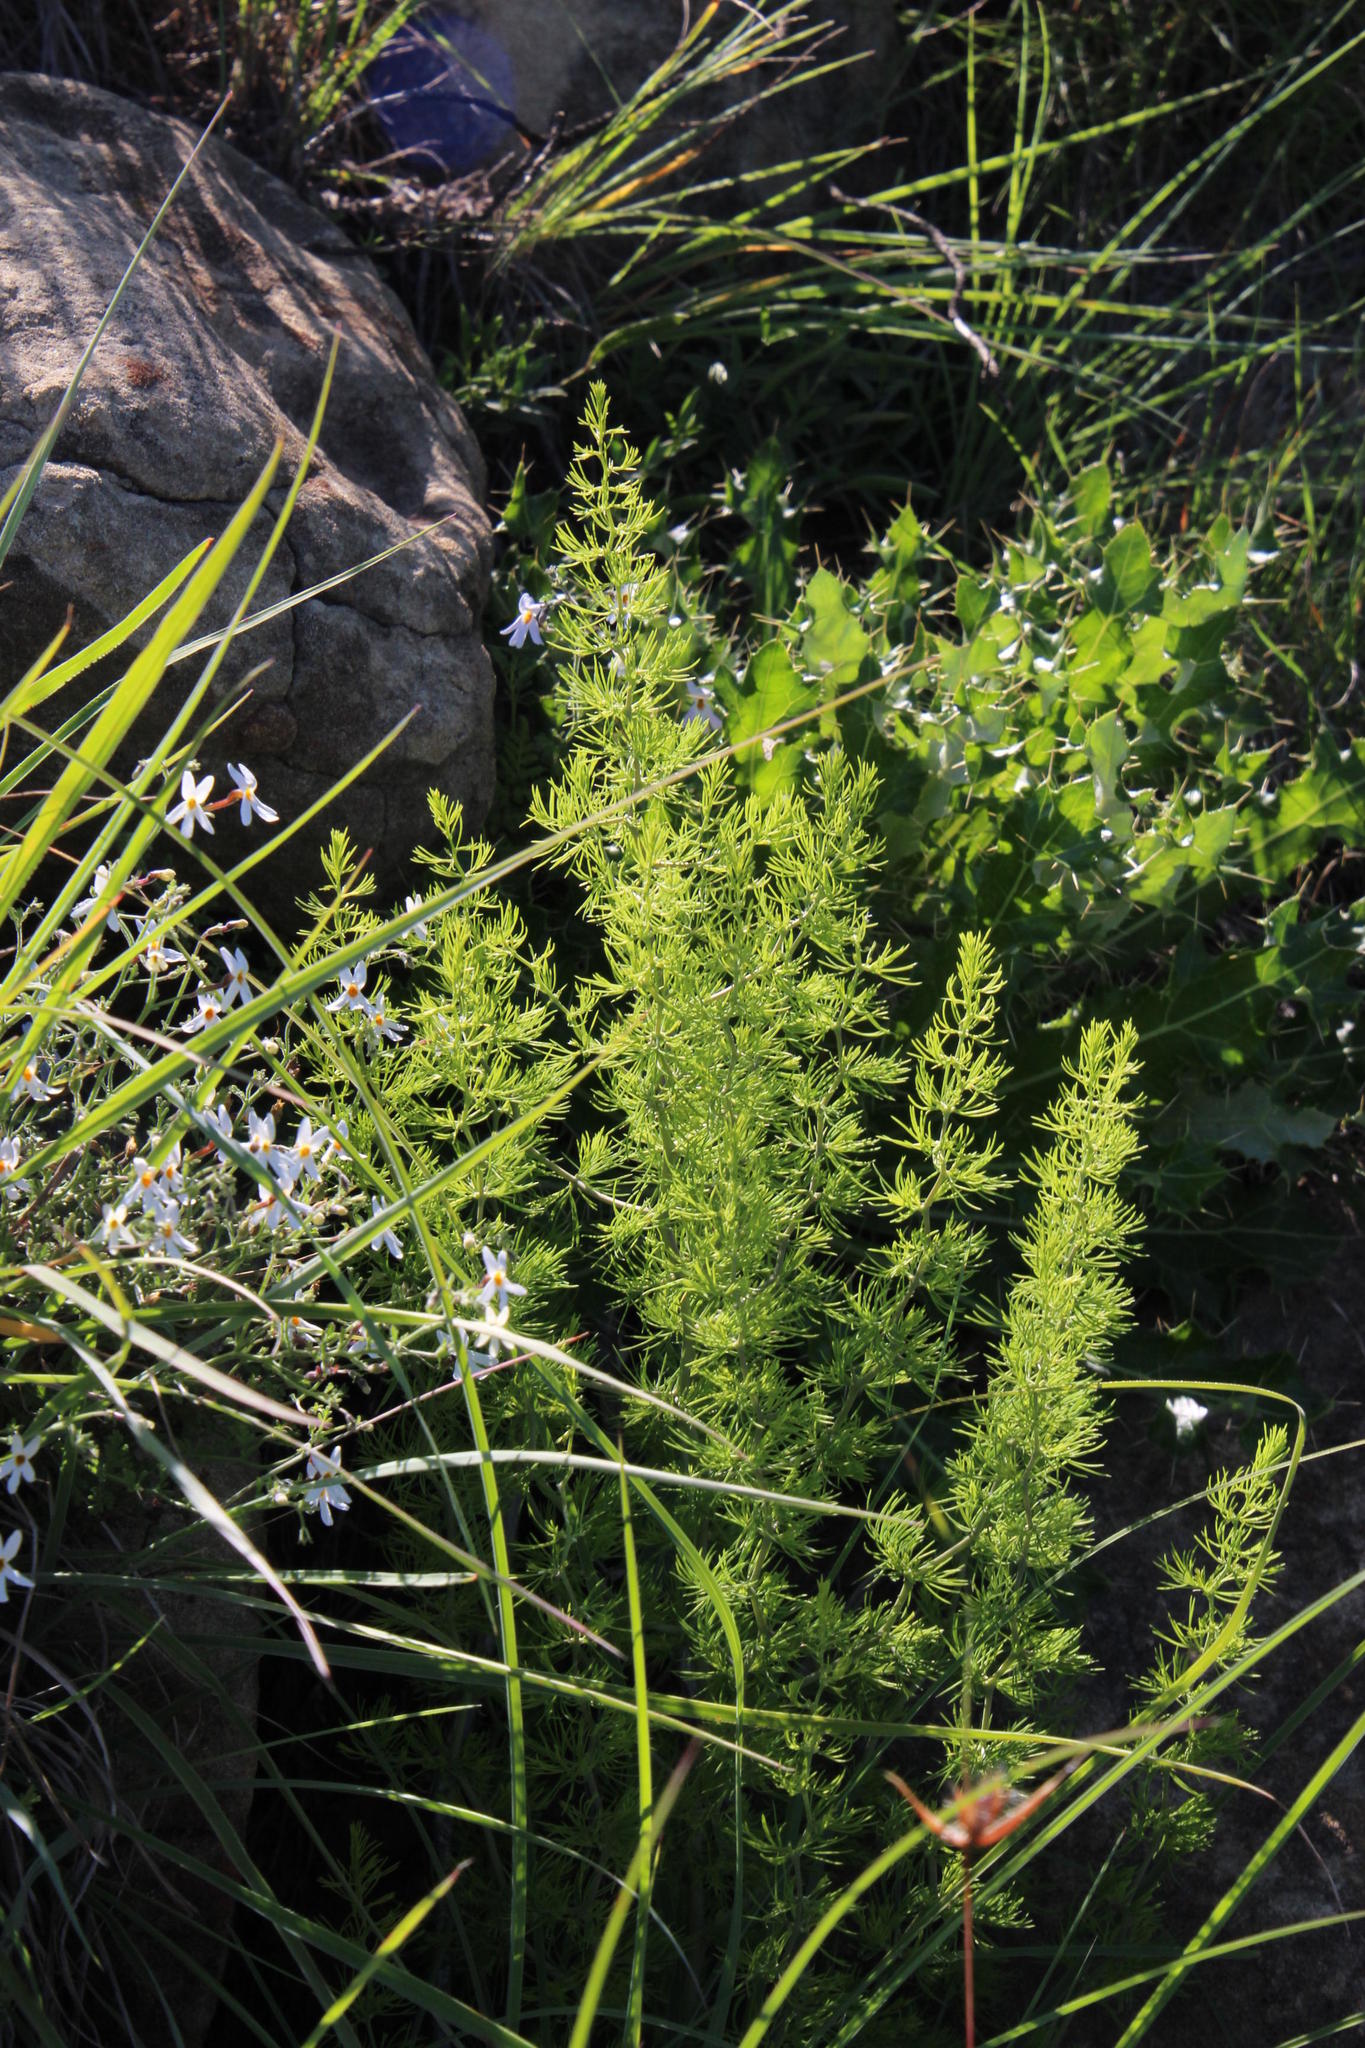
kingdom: Plantae
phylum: Tracheophyta
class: Liliopsida
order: Asparagales
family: Asparagaceae
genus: Asparagus
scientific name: Asparagus filicladus
